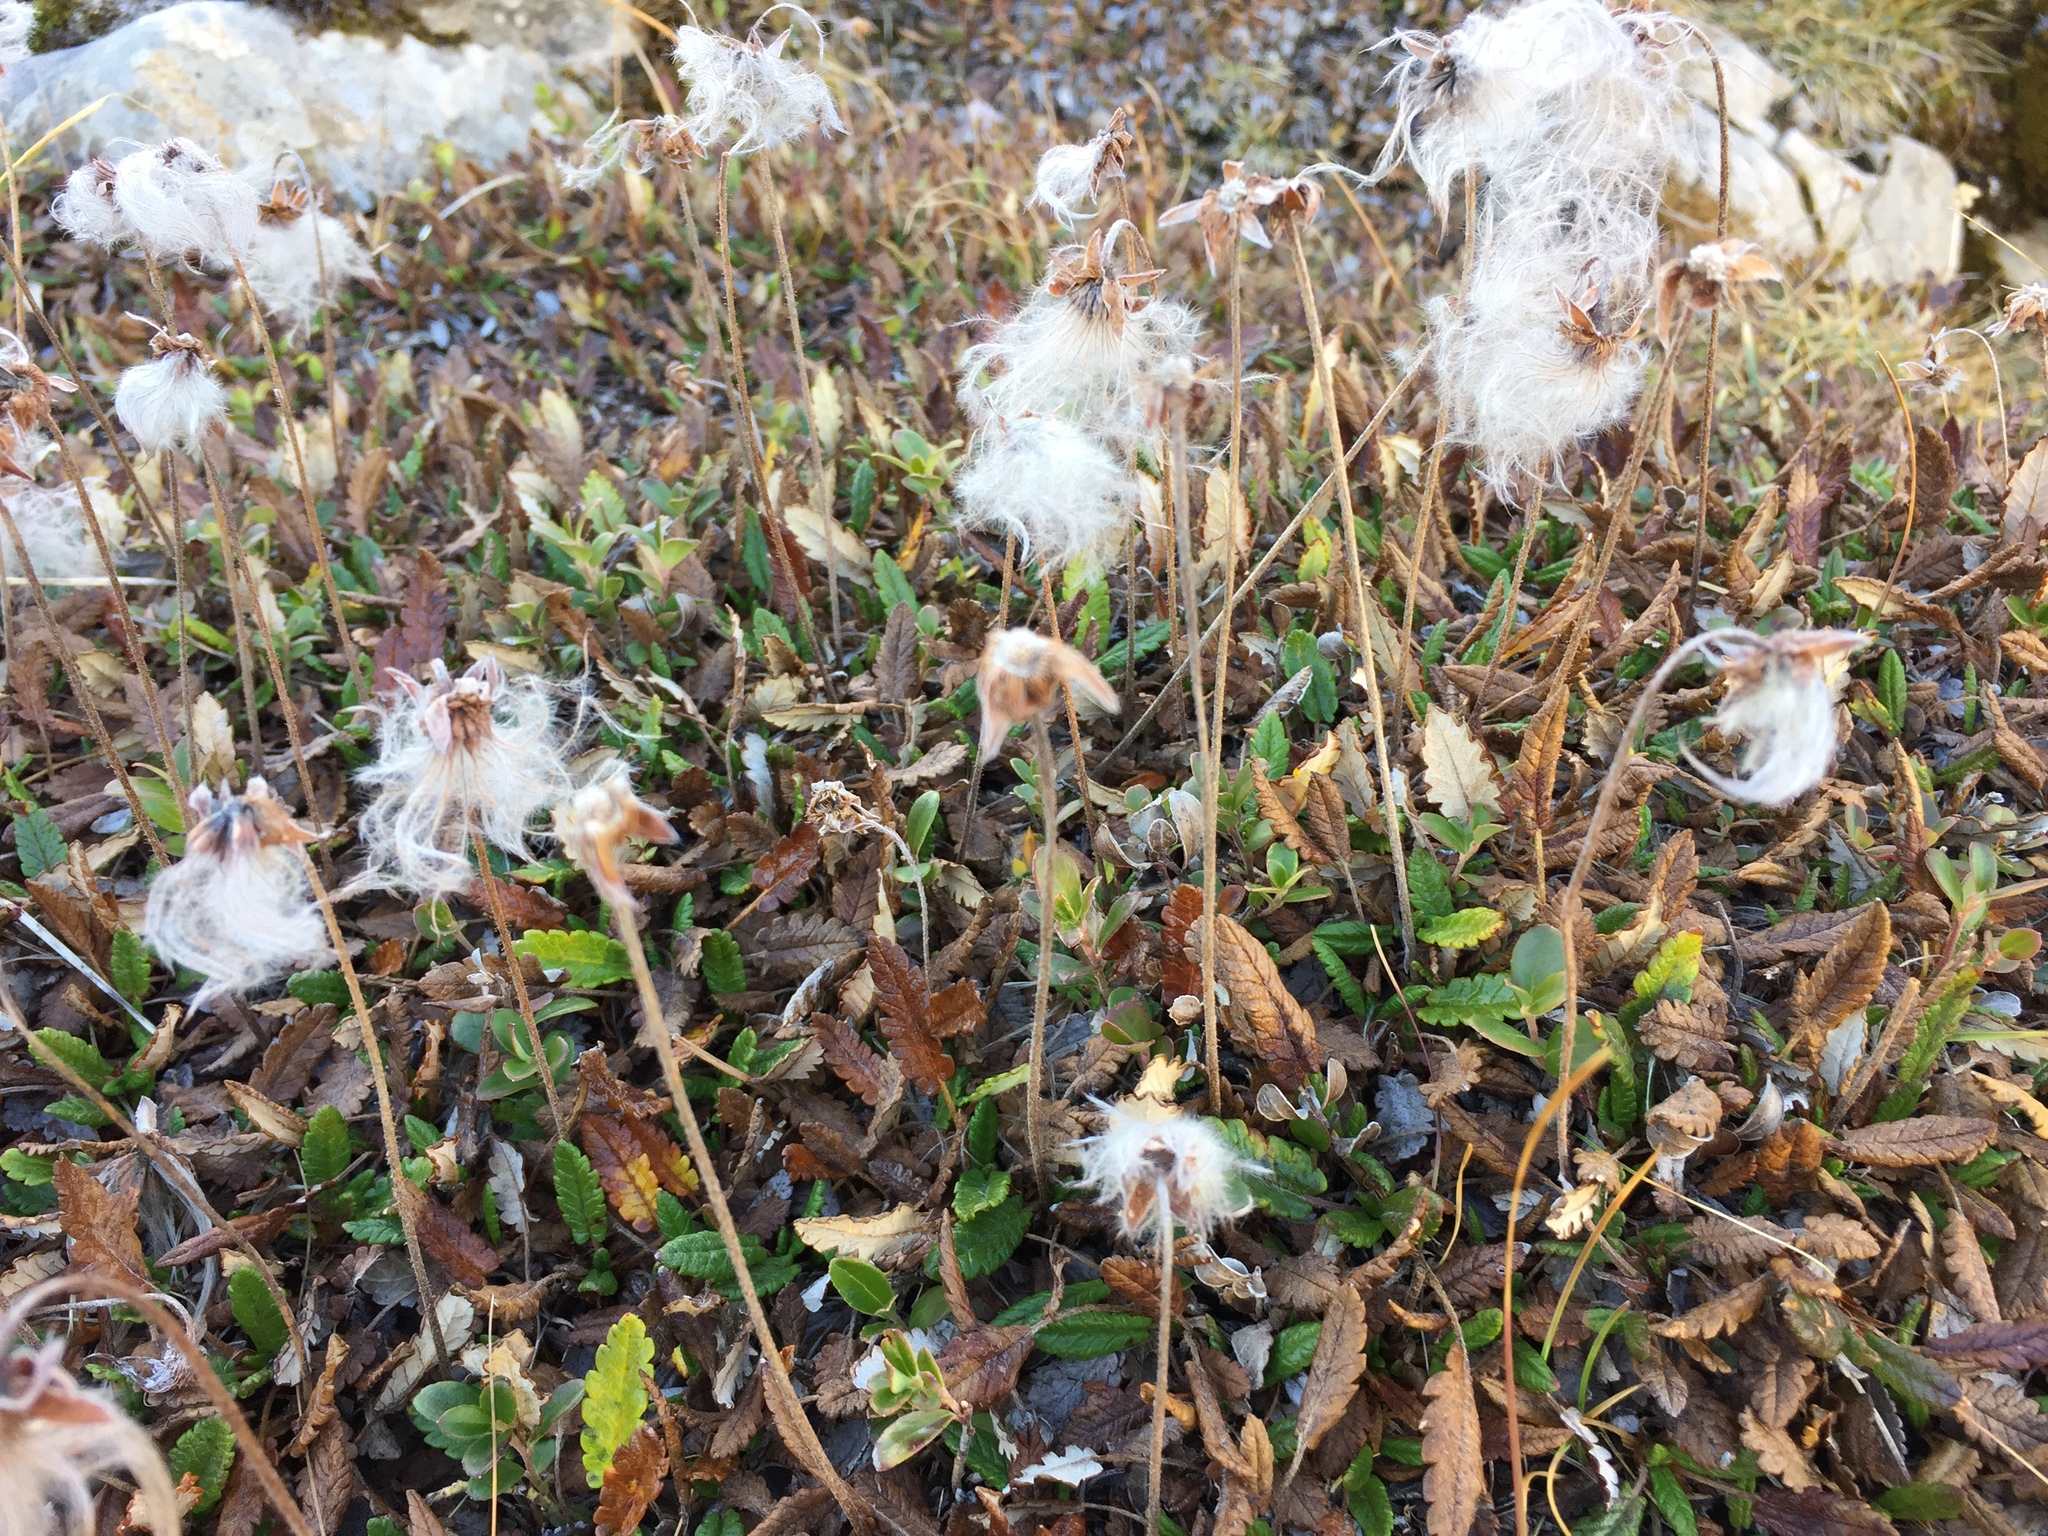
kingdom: Plantae
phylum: Tracheophyta
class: Magnoliopsida
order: Rosales
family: Rosaceae
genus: Dryas
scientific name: Dryas octopetala
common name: Eight-petal mountain-avens
